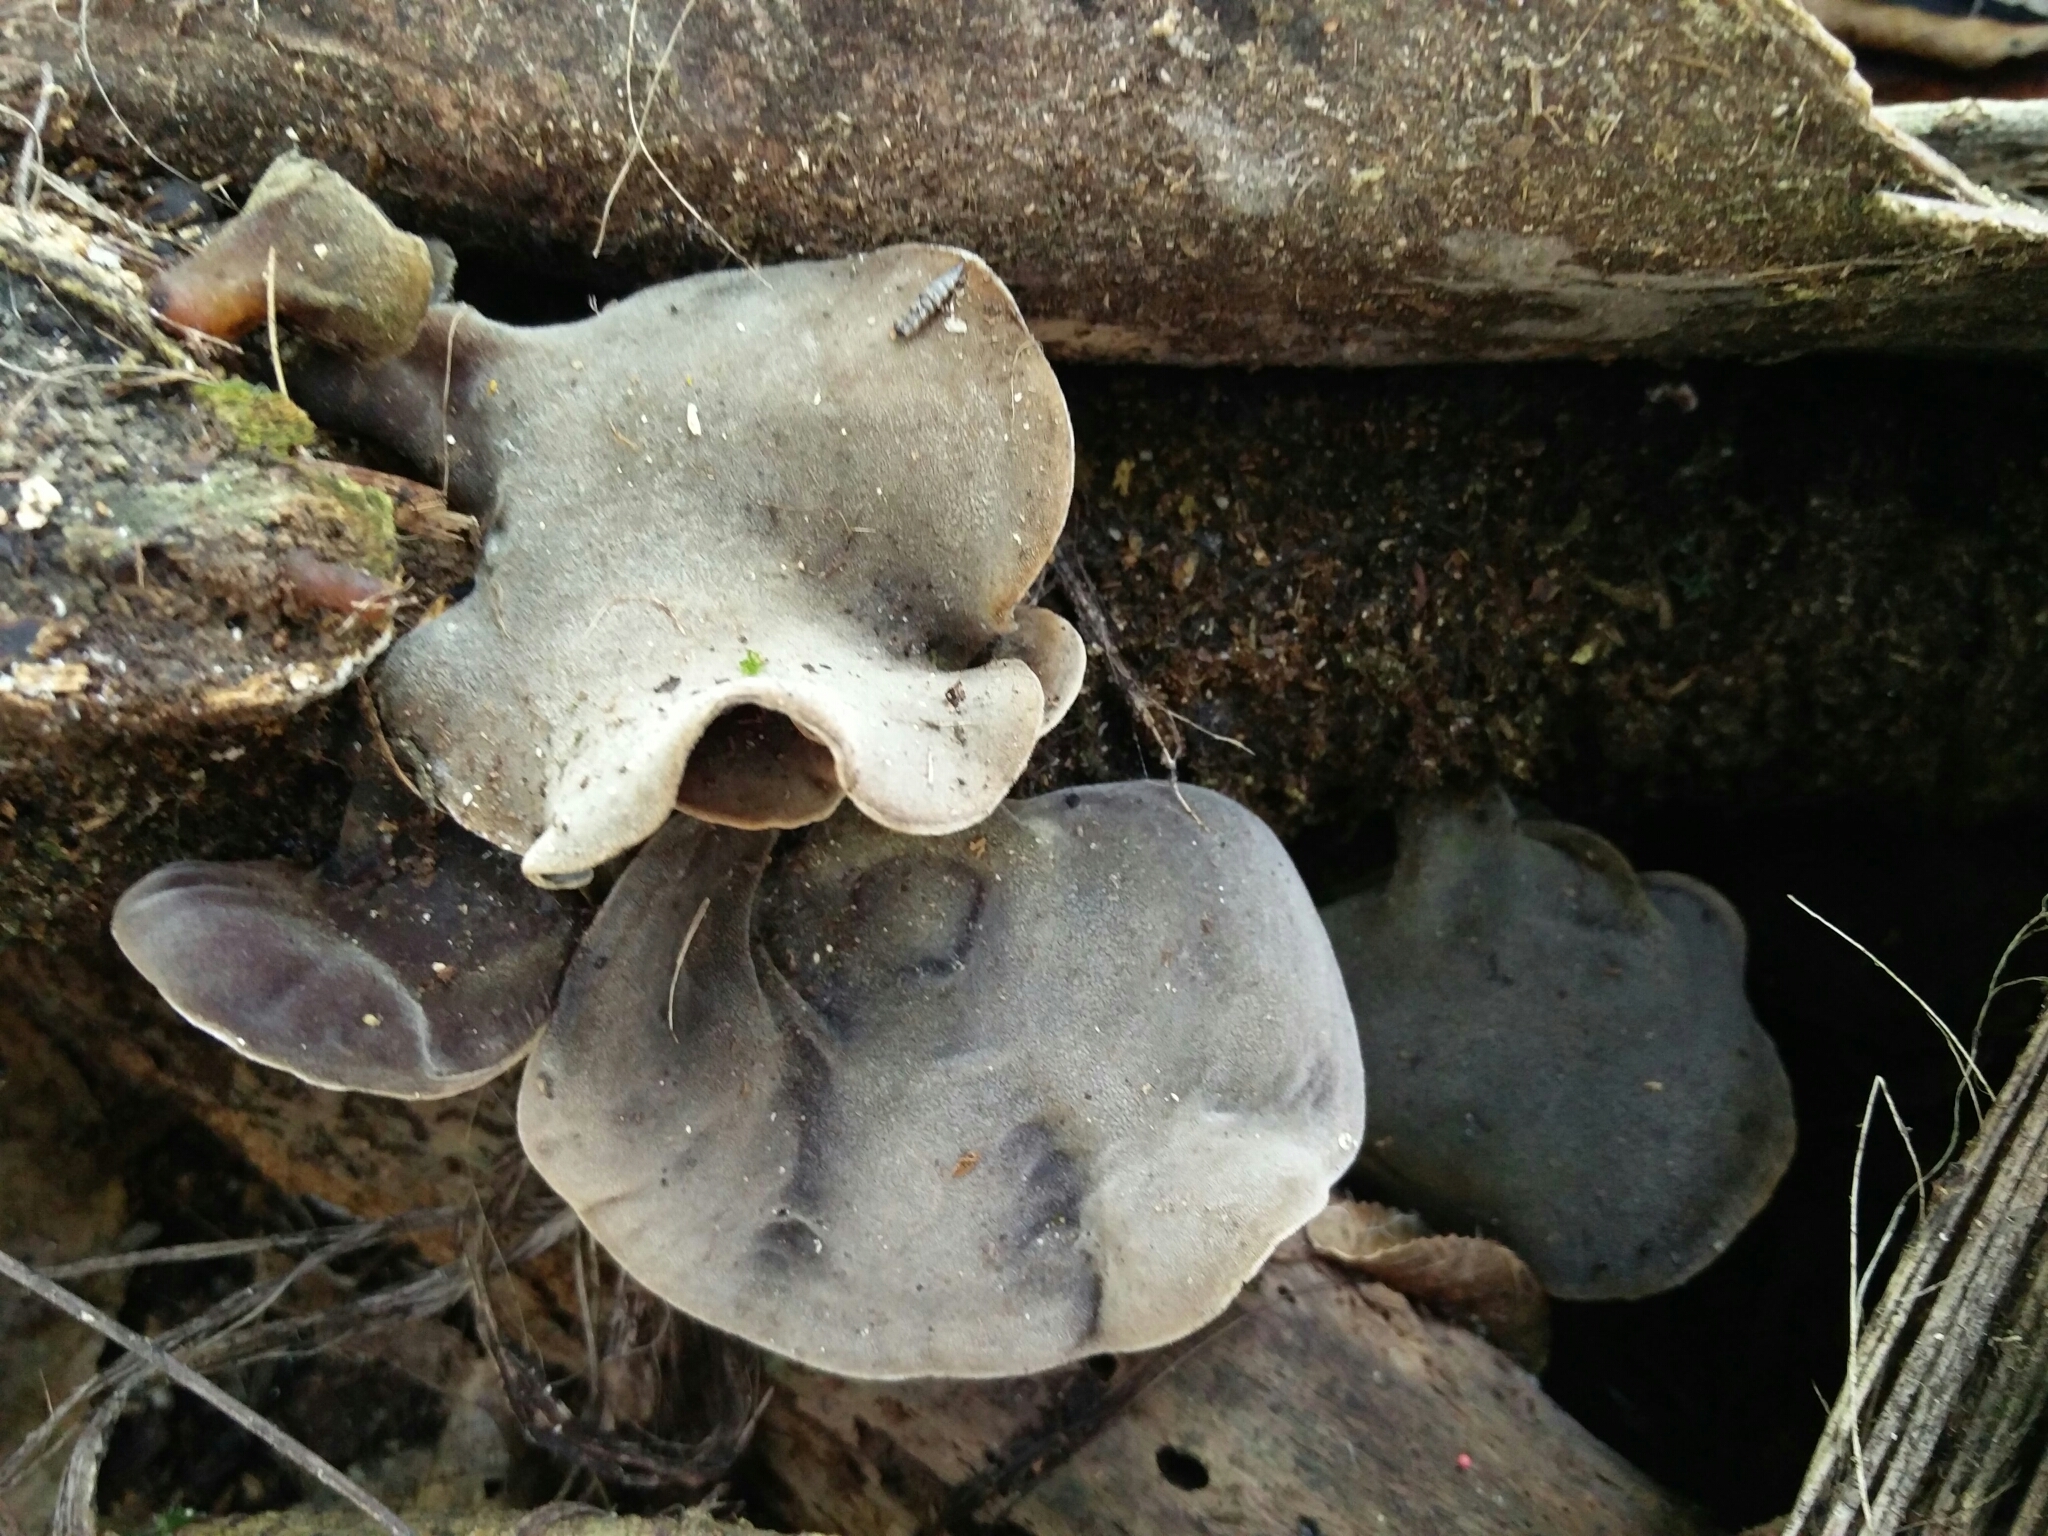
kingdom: Fungi
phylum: Basidiomycota
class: Agaricomycetes
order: Auriculariales
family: Auriculariaceae
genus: Auricularia
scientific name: Auricularia cornea
